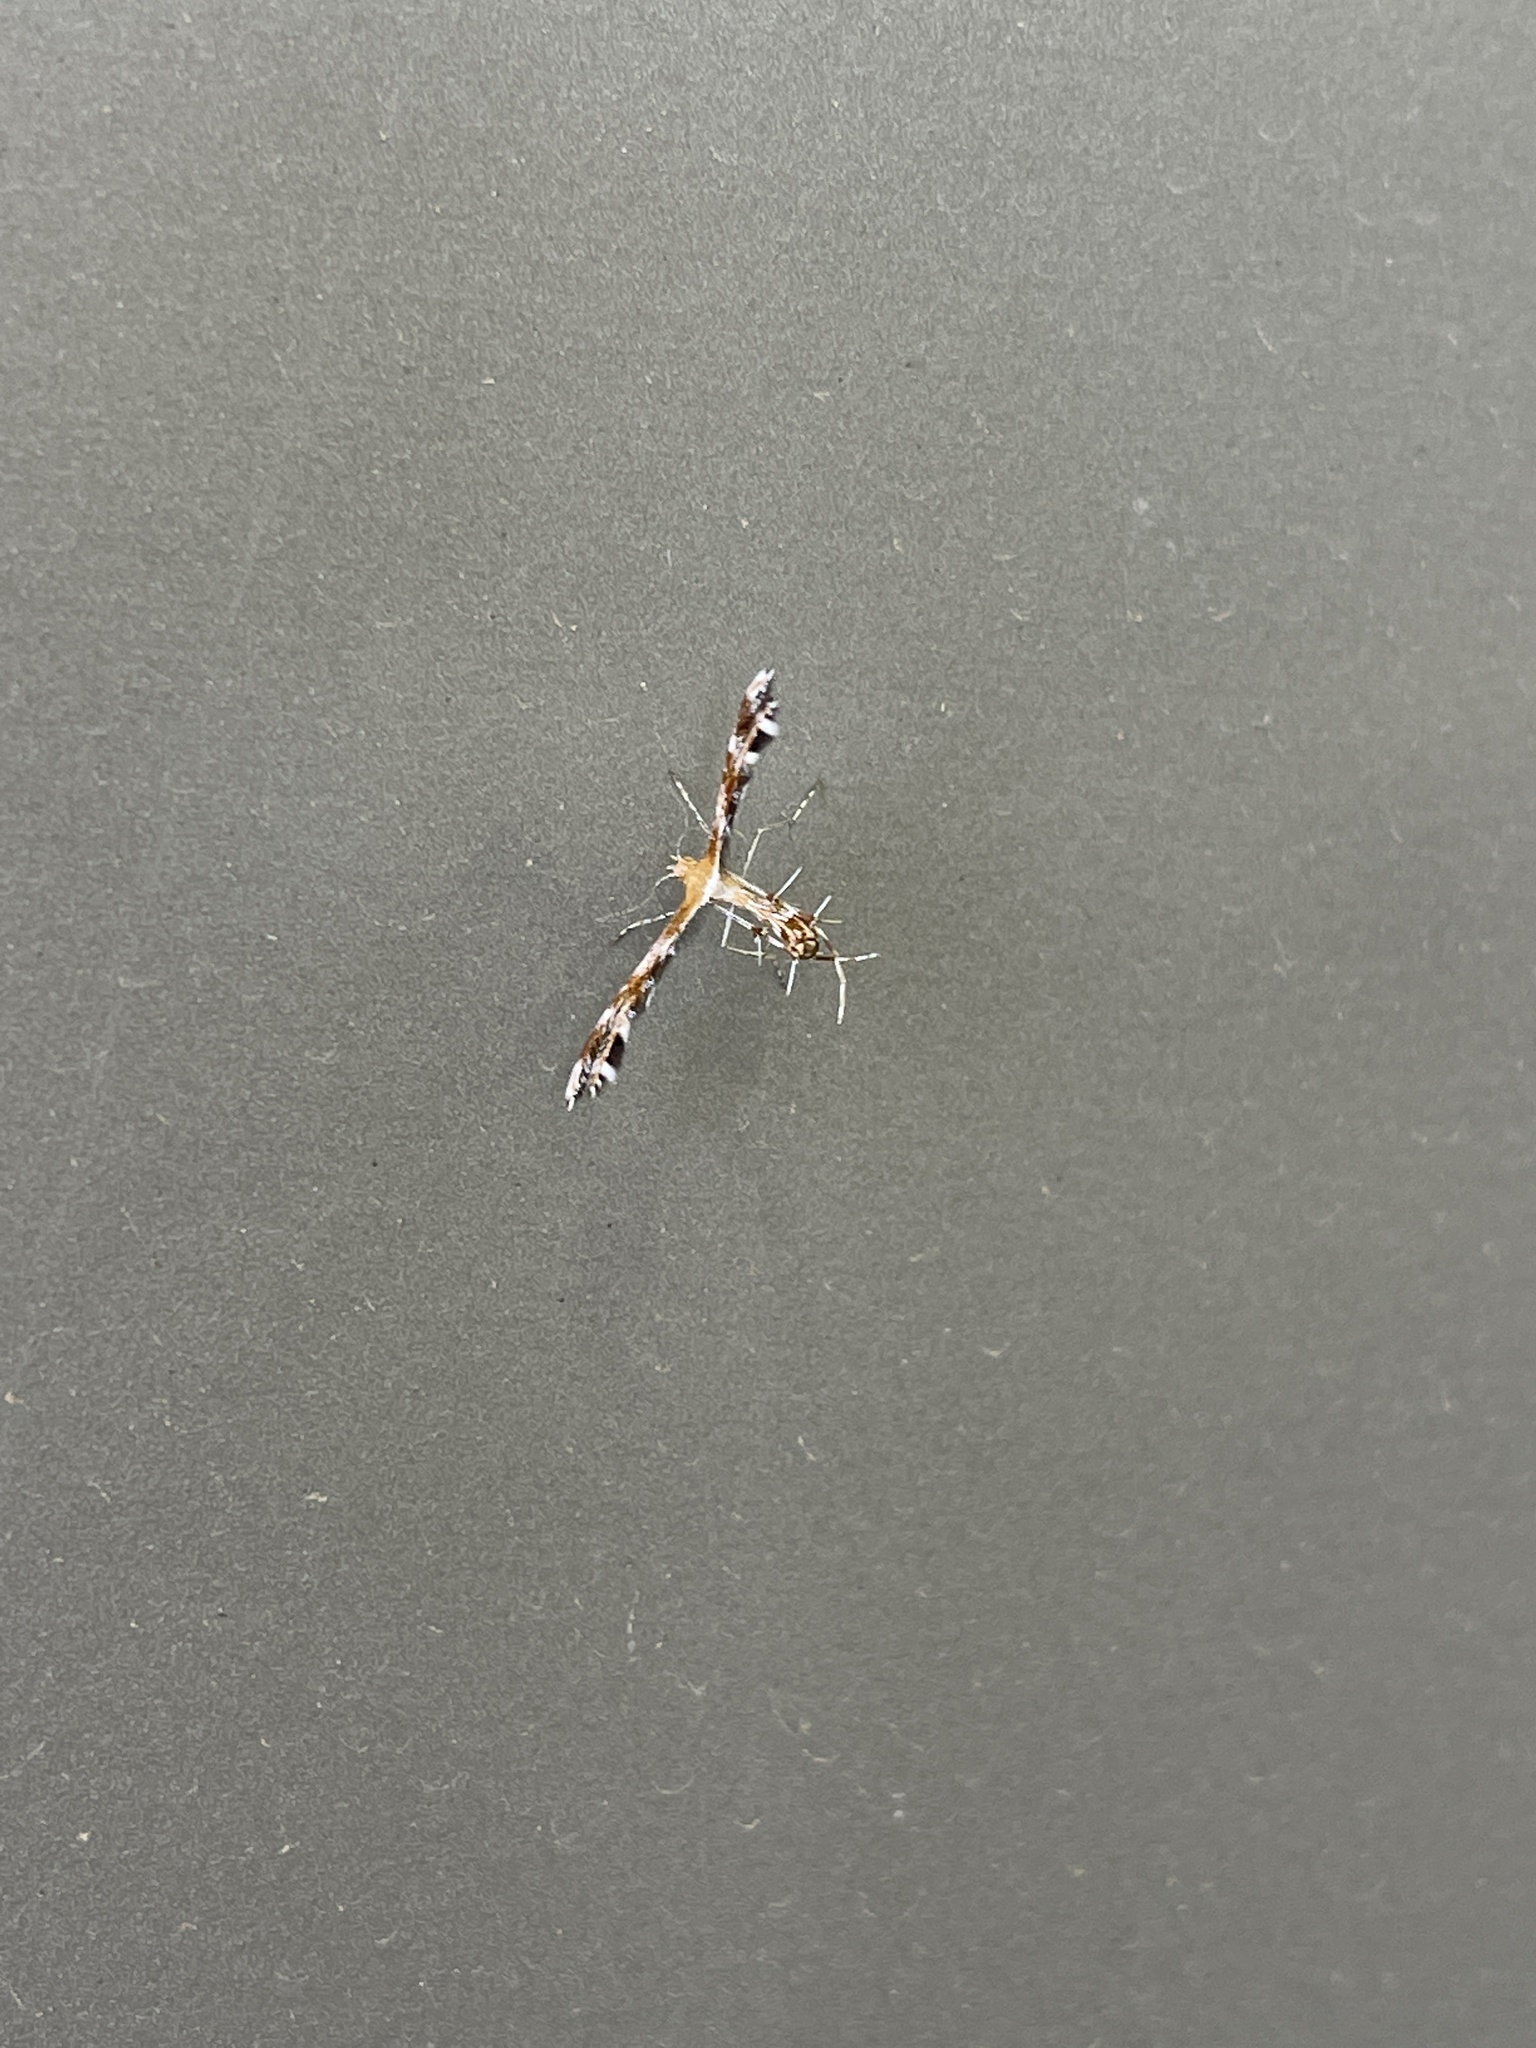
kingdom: Animalia
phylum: Arthropoda
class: Insecta
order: Lepidoptera
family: Pterophoridae
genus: Dejongia
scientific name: Dejongia californicus
